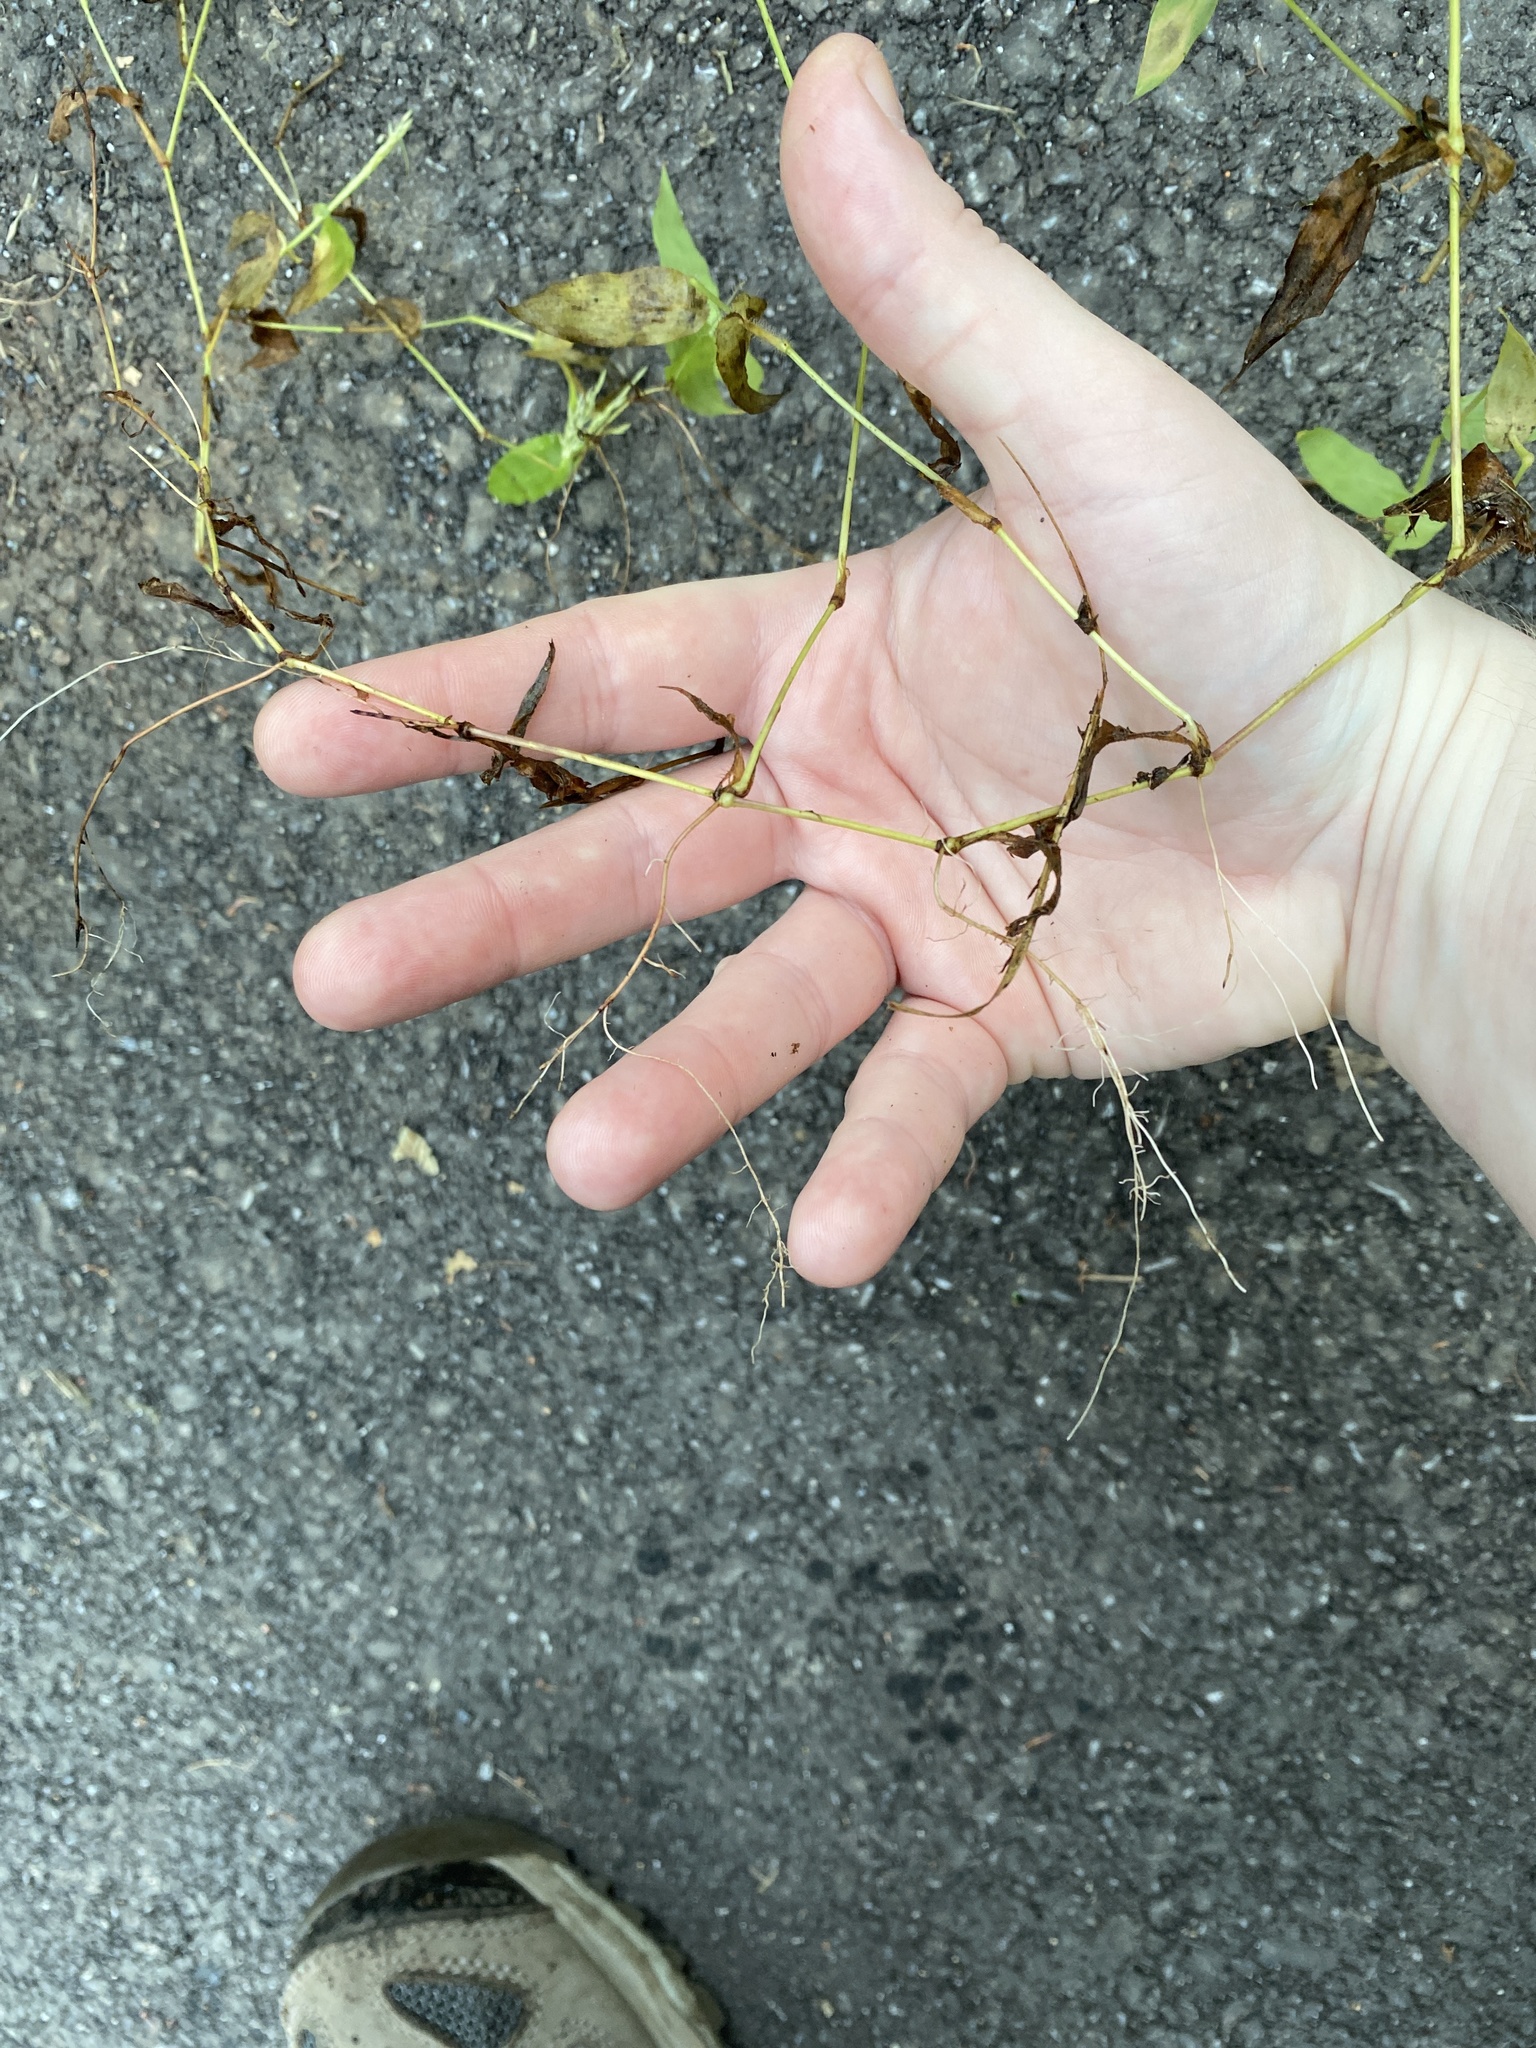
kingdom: Plantae
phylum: Tracheophyta
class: Liliopsida
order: Poales
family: Poaceae
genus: Arthraxon
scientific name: Arthraxon hispidus
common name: Small carpgrass
